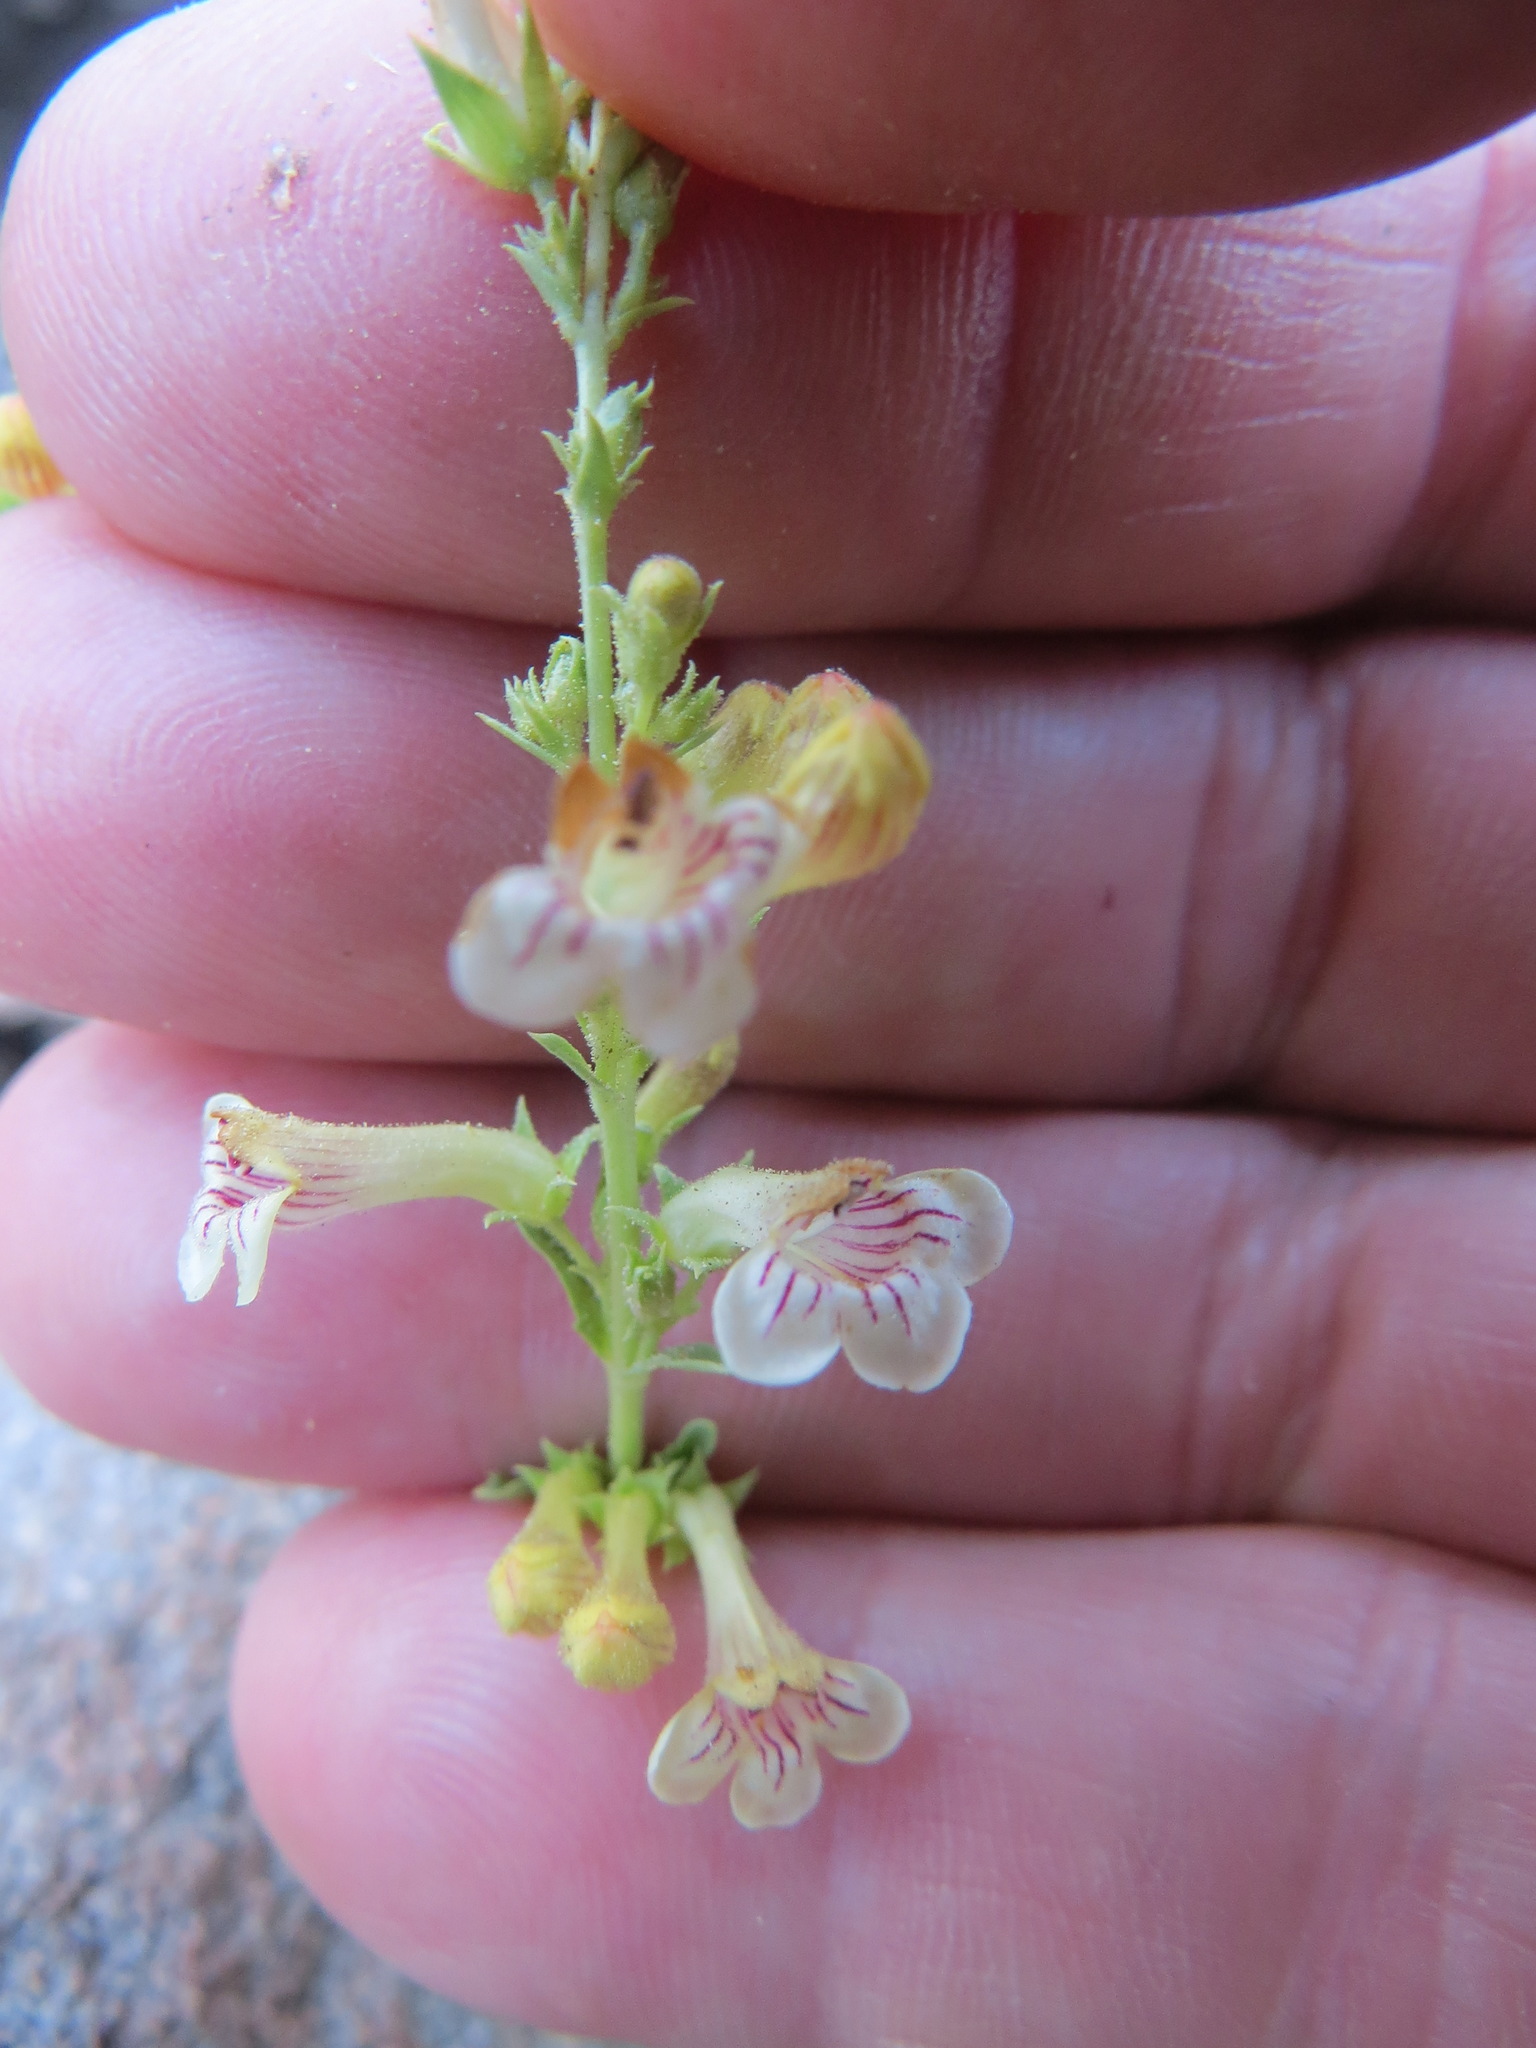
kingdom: Plantae
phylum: Tracheophyta
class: Magnoliopsida
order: Lamiales
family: Plantaginaceae
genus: Penstemon
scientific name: Penstemon deustus
